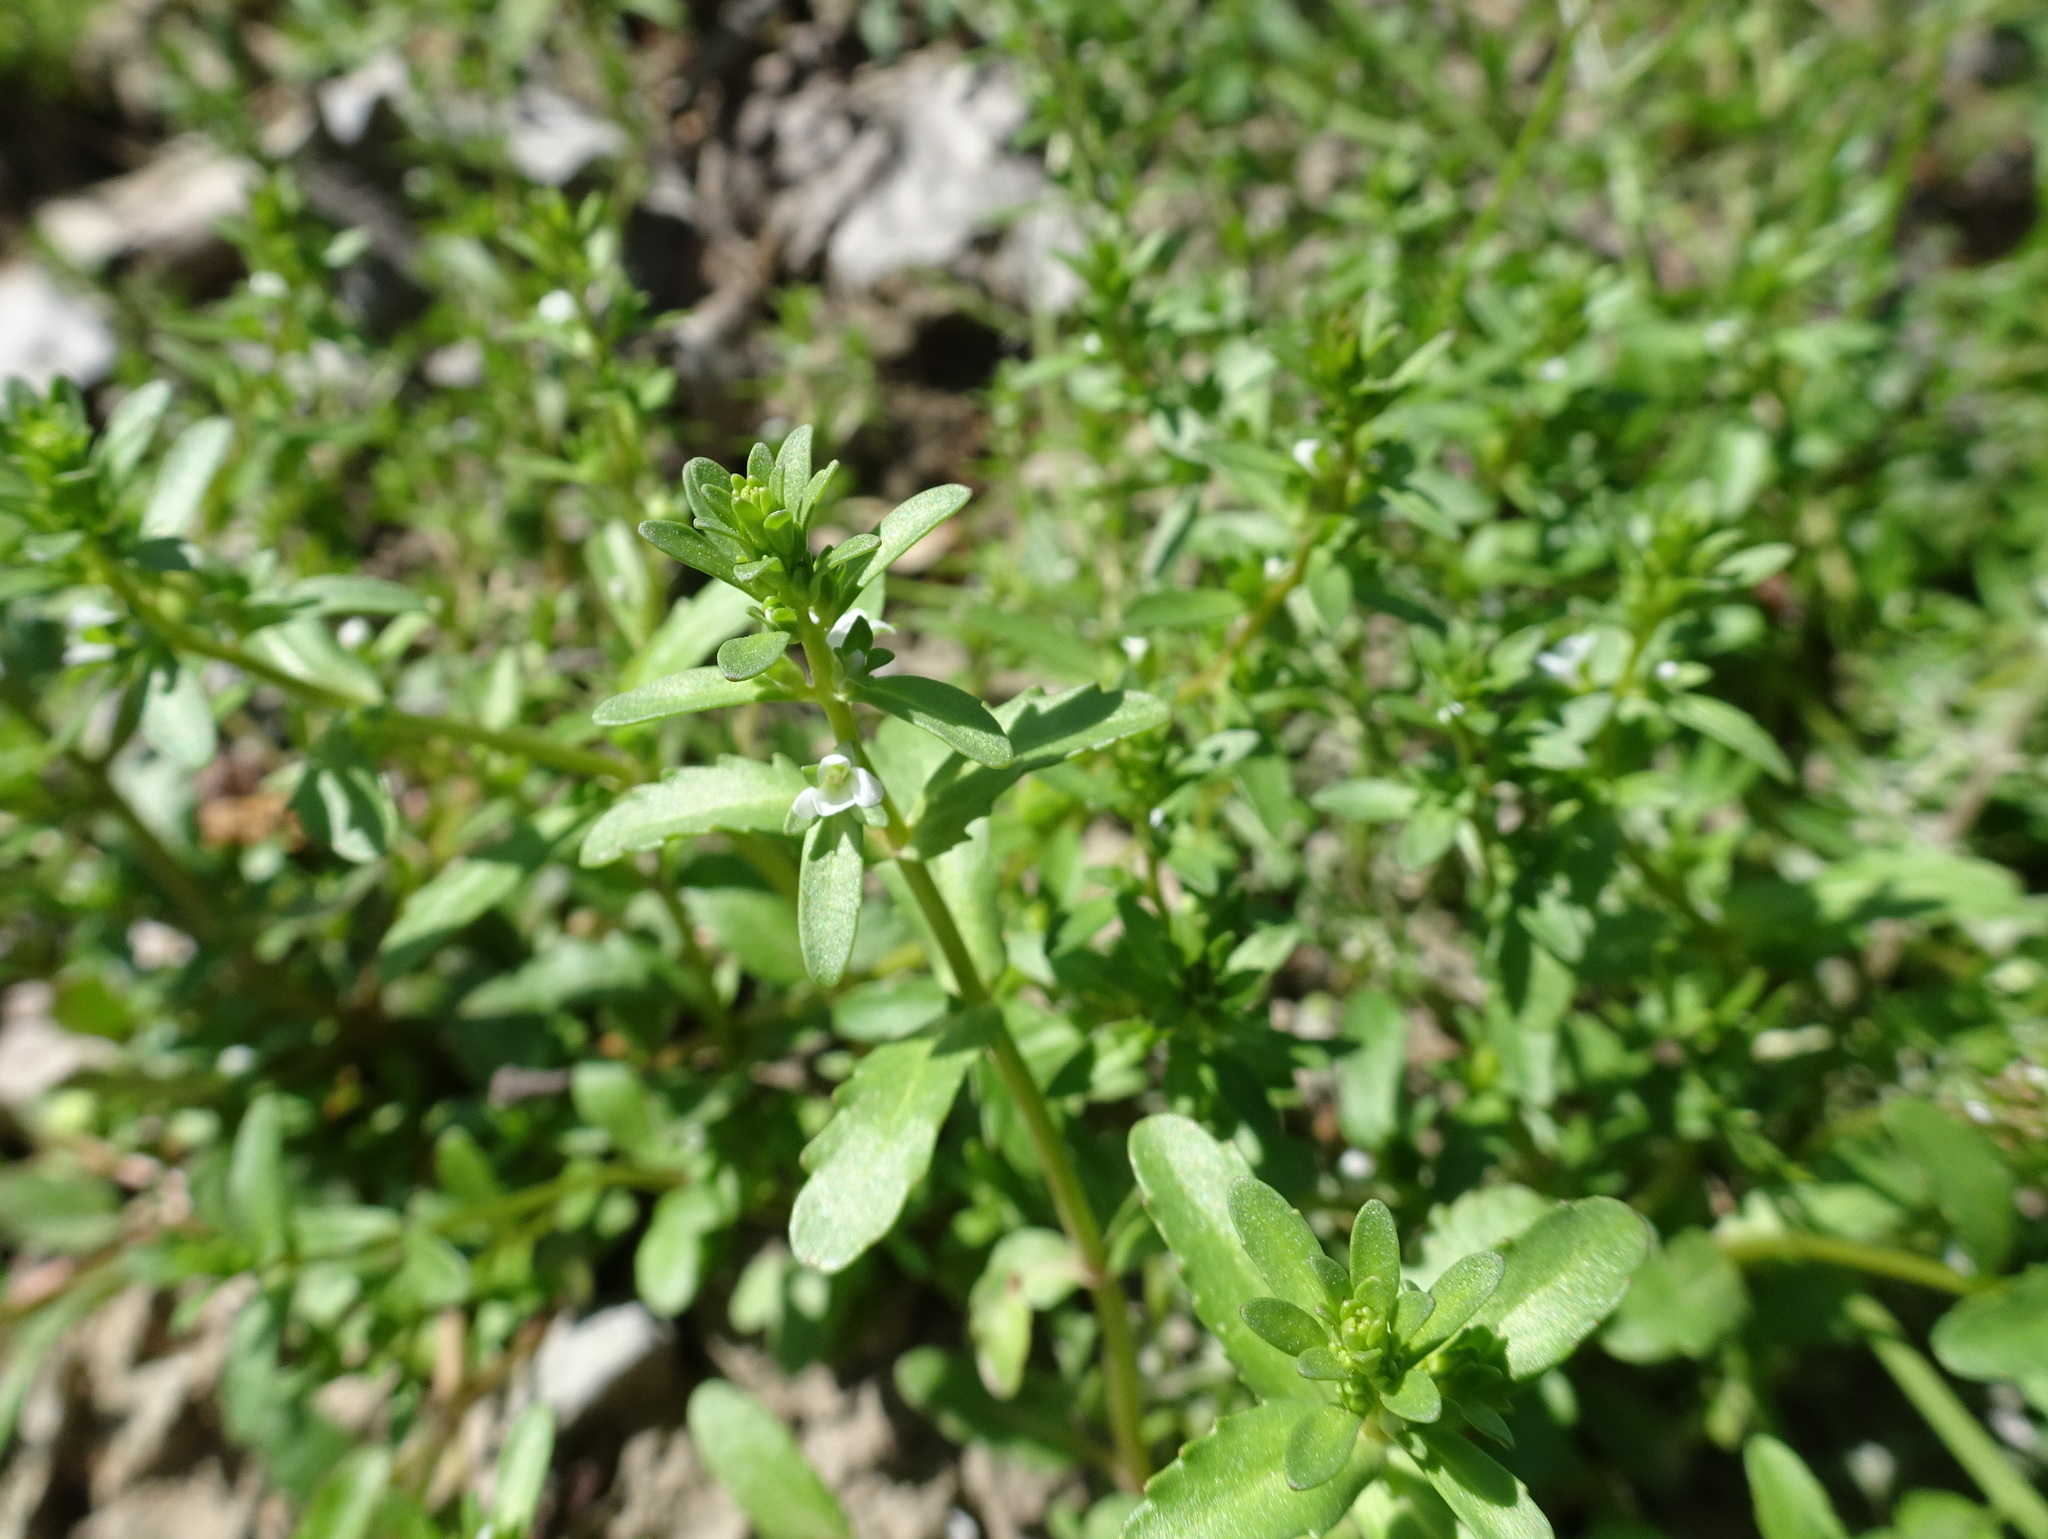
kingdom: Plantae
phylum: Tracheophyta
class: Magnoliopsida
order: Lamiales
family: Plantaginaceae
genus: Veronica
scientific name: Veronica peregrina
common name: Neckweed
